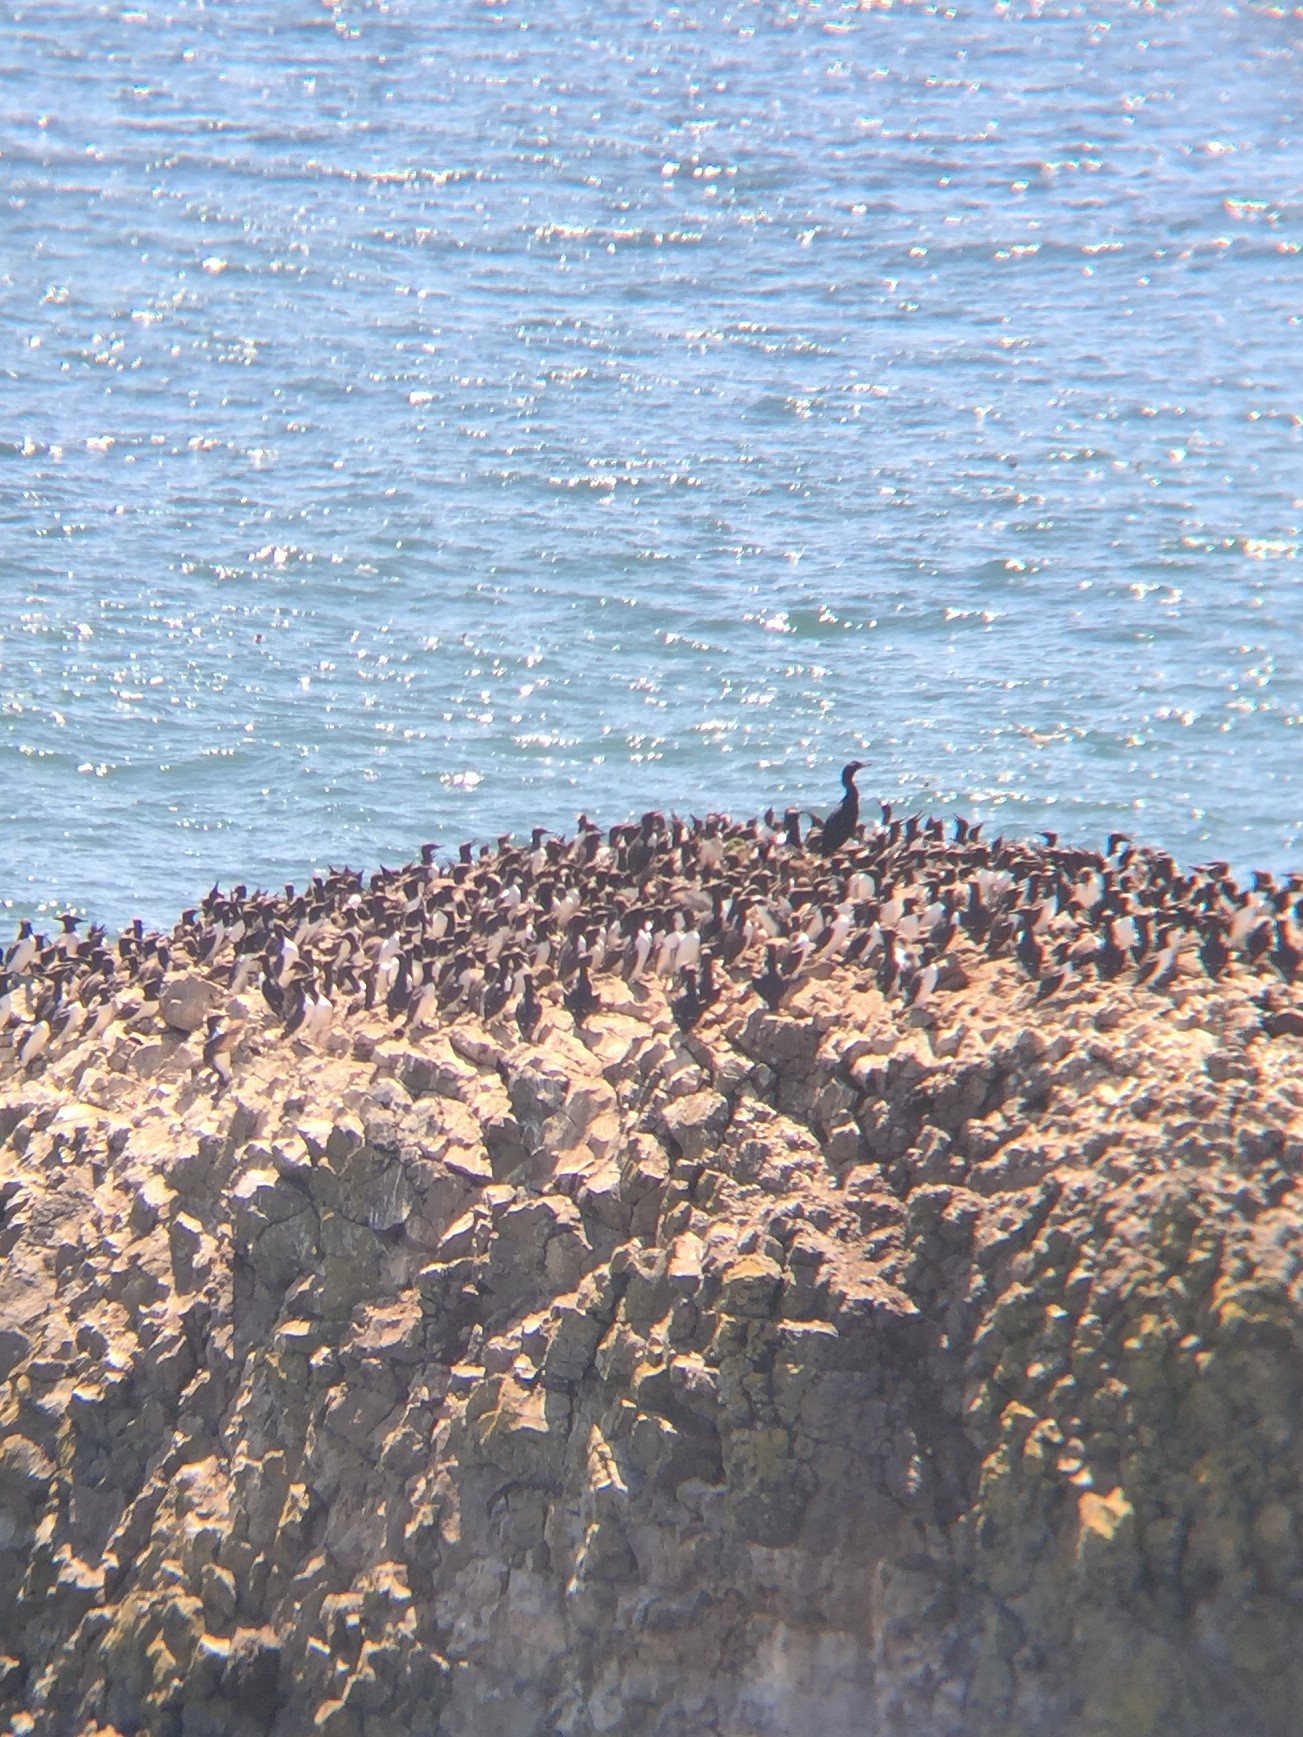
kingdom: Animalia
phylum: Chordata
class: Aves
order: Charadriiformes
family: Alcidae
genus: Uria
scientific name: Uria aalge
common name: Common murre
